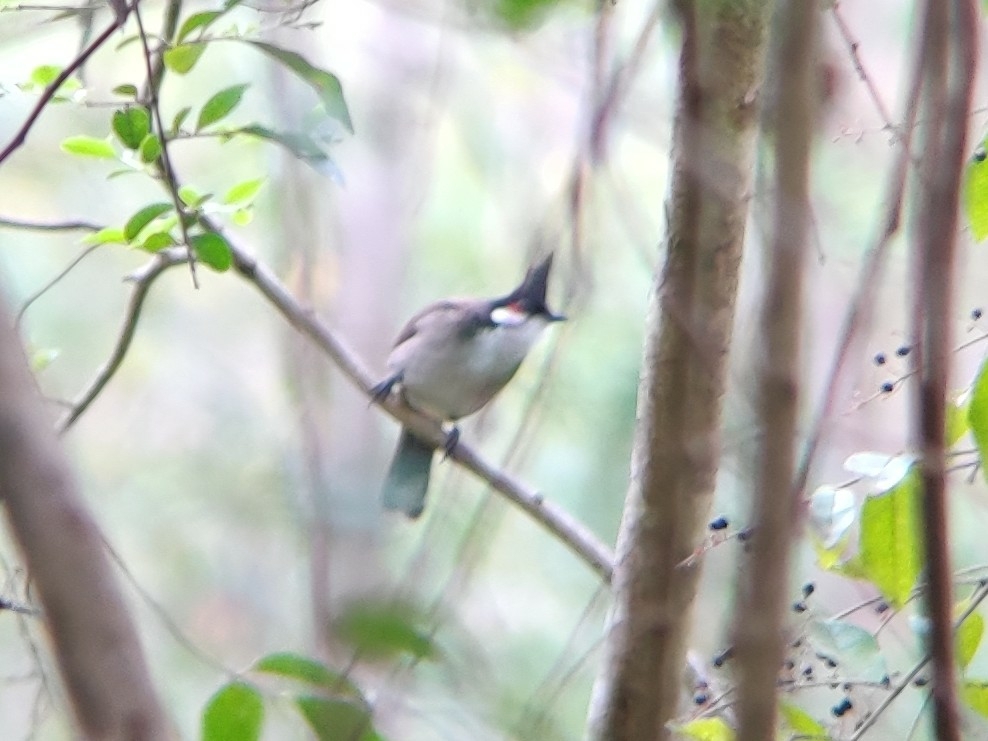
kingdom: Animalia
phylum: Chordata
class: Aves
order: Passeriformes
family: Pycnonotidae
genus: Pycnonotus
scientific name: Pycnonotus jocosus
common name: Red-whiskered bulbul
